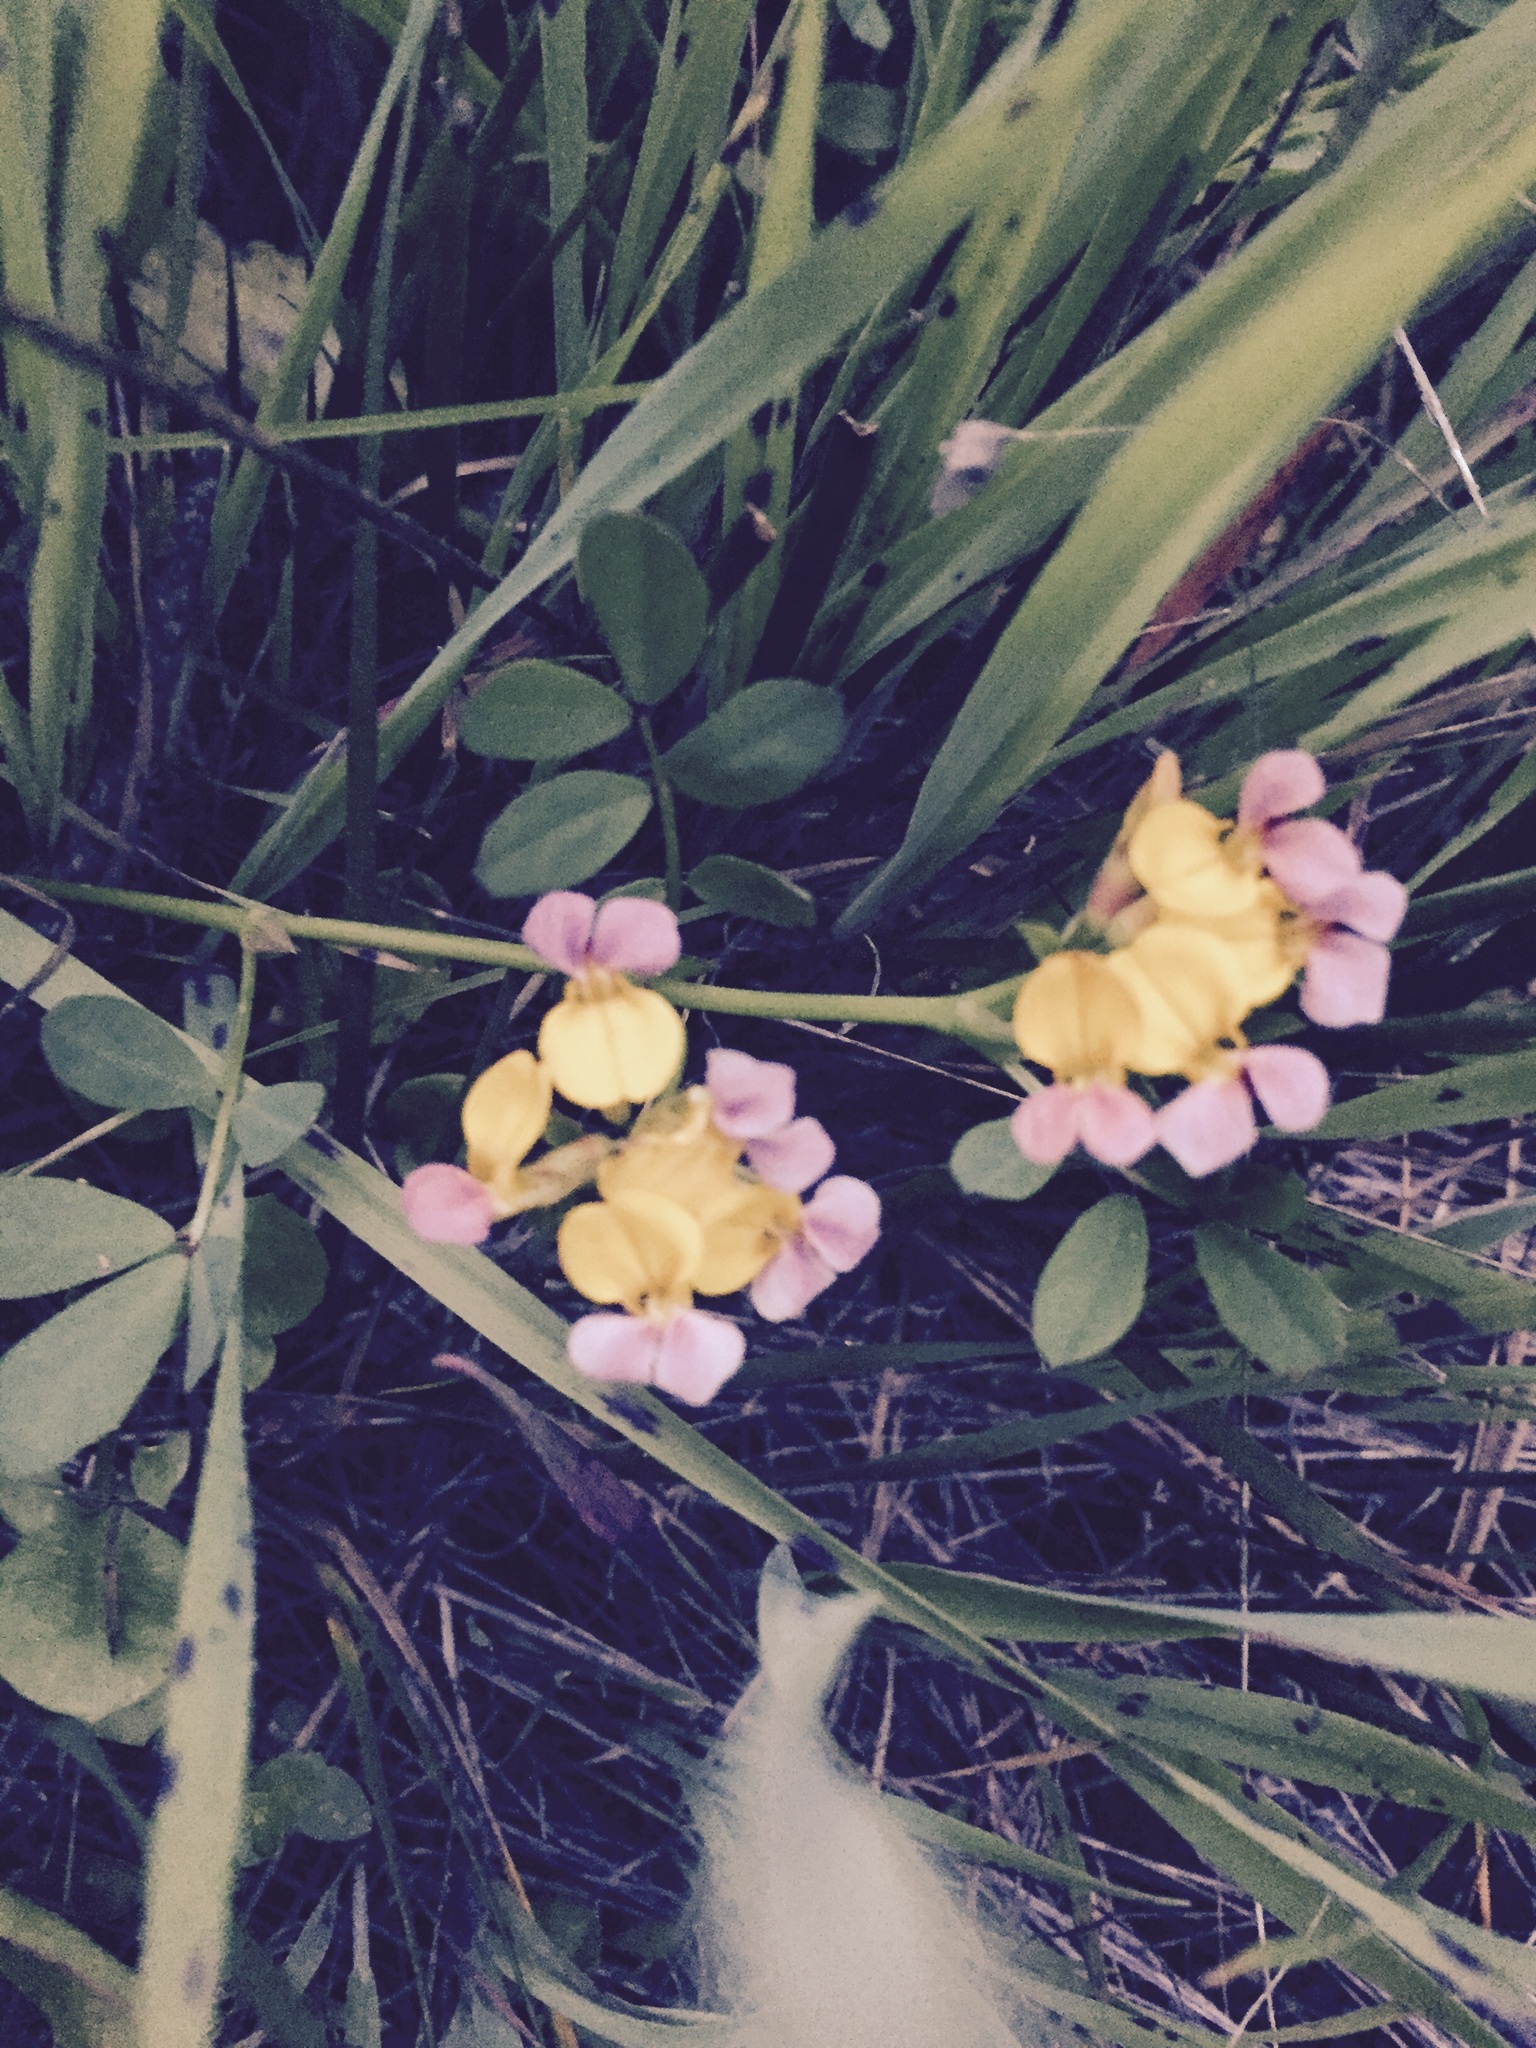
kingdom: Plantae
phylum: Tracheophyta
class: Magnoliopsida
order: Fabales
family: Fabaceae
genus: Hosackia
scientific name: Hosackia gracilis
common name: Seaside bird's-foot lotus
